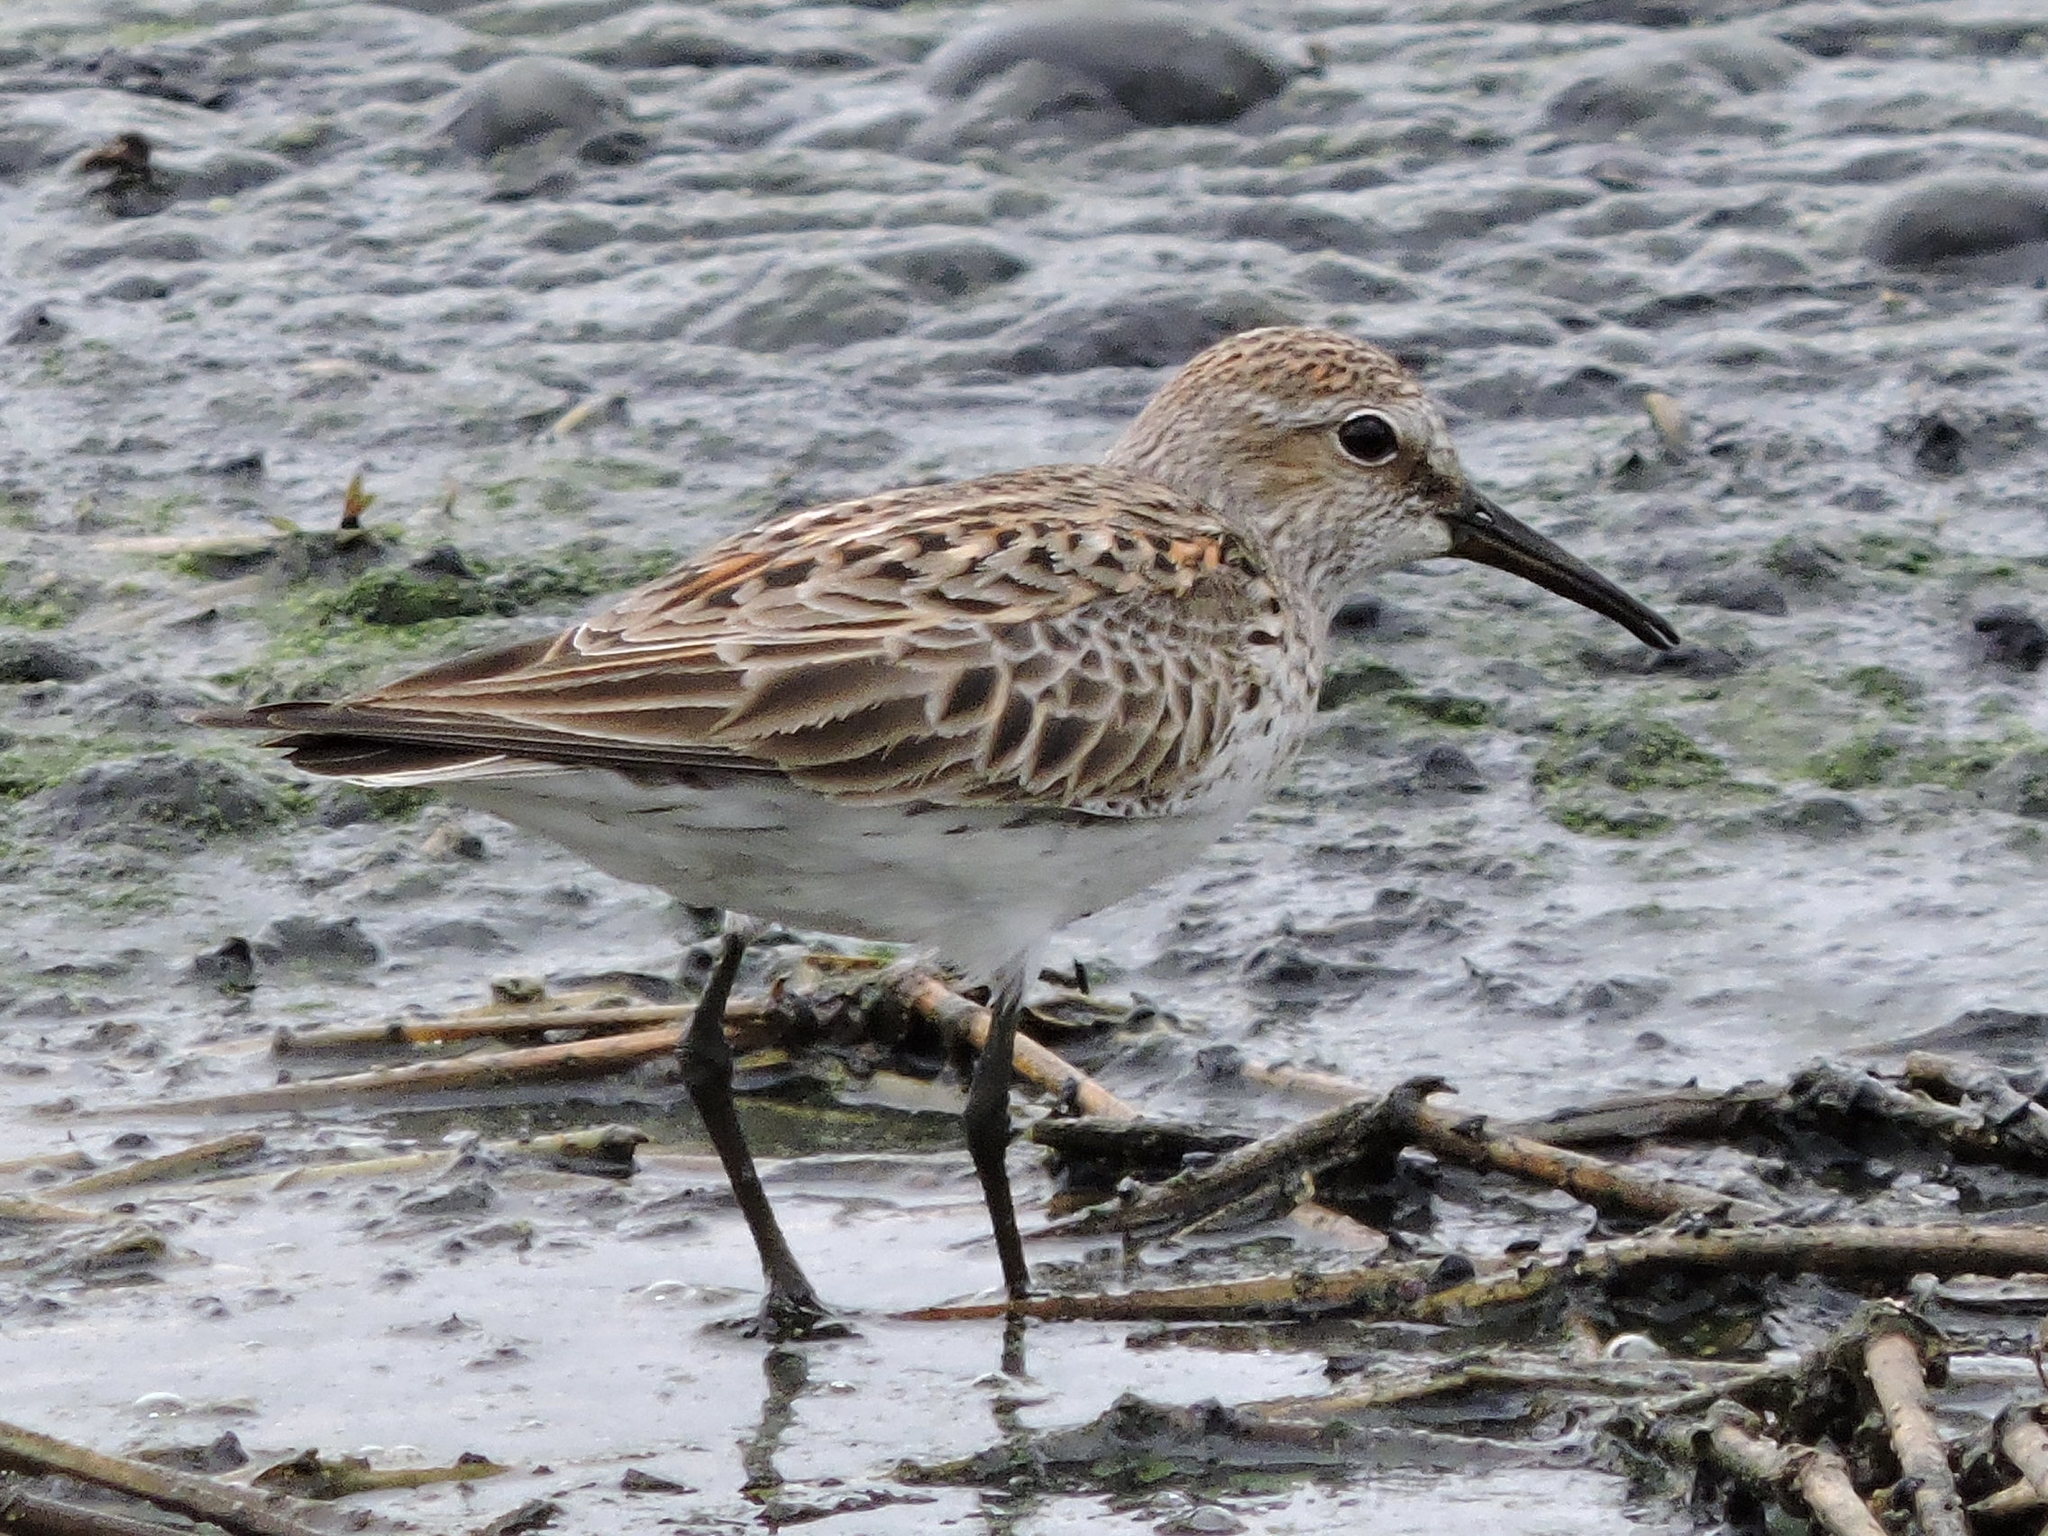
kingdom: Animalia
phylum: Chordata
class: Aves
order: Charadriiformes
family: Scolopacidae
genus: Calidris
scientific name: Calidris fuscicollis
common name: White-rumped sandpiper
